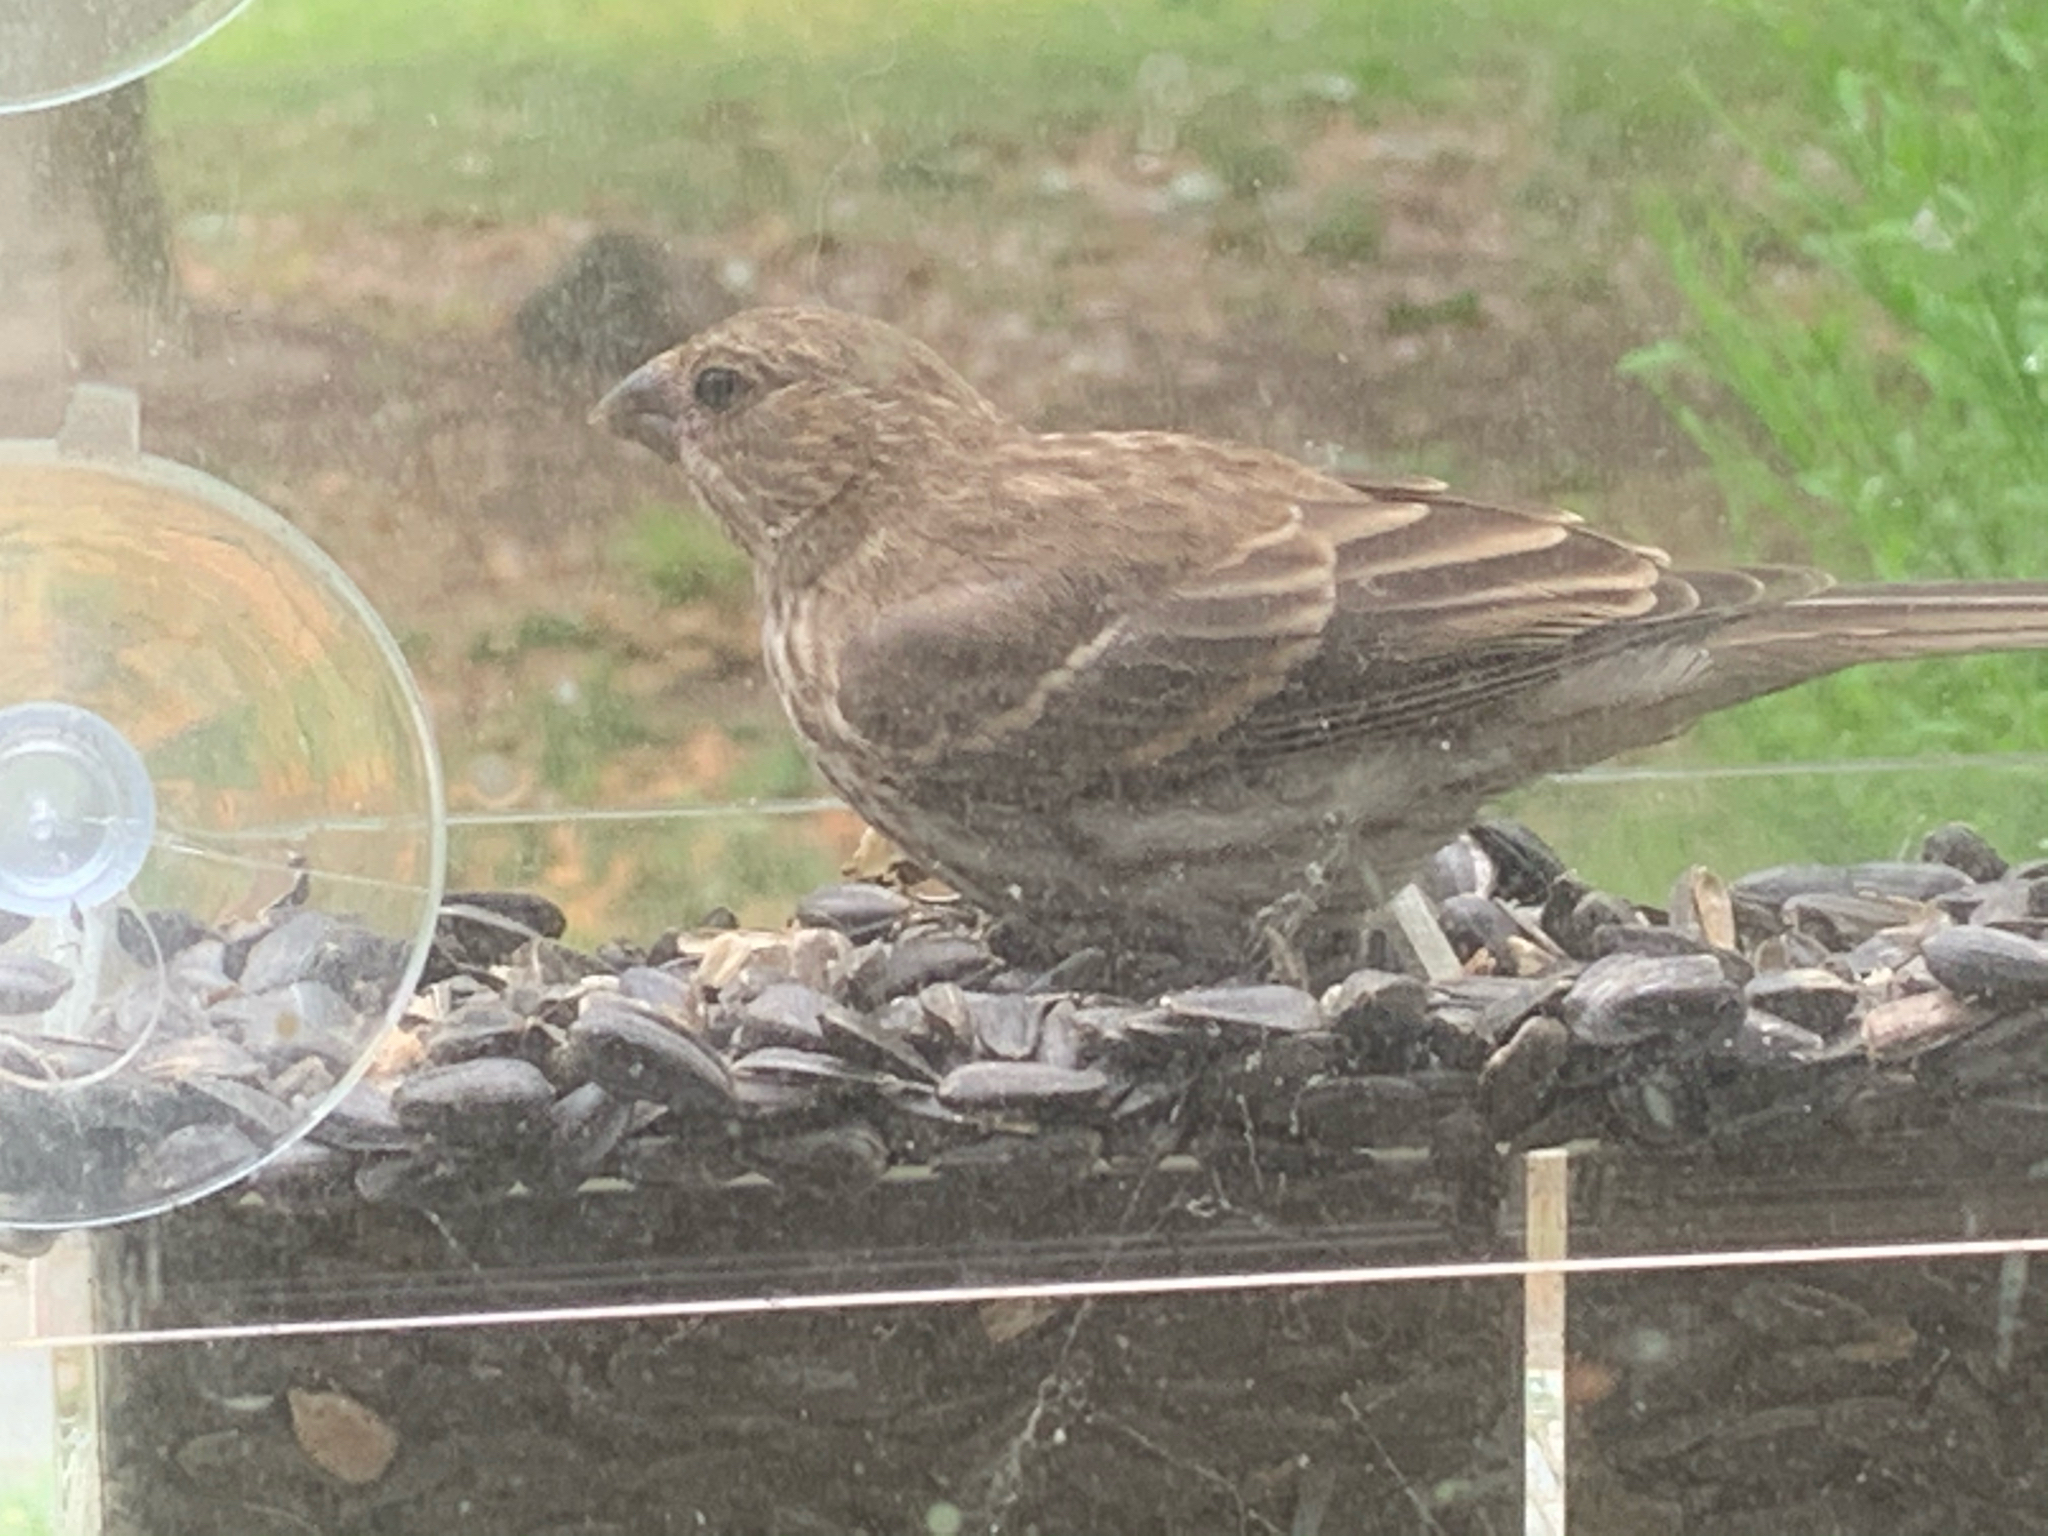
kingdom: Animalia
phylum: Chordata
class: Aves
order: Passeriformes
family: Fringillidae
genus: Haemorhous
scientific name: Haemorhous mexicanus
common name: House finch
